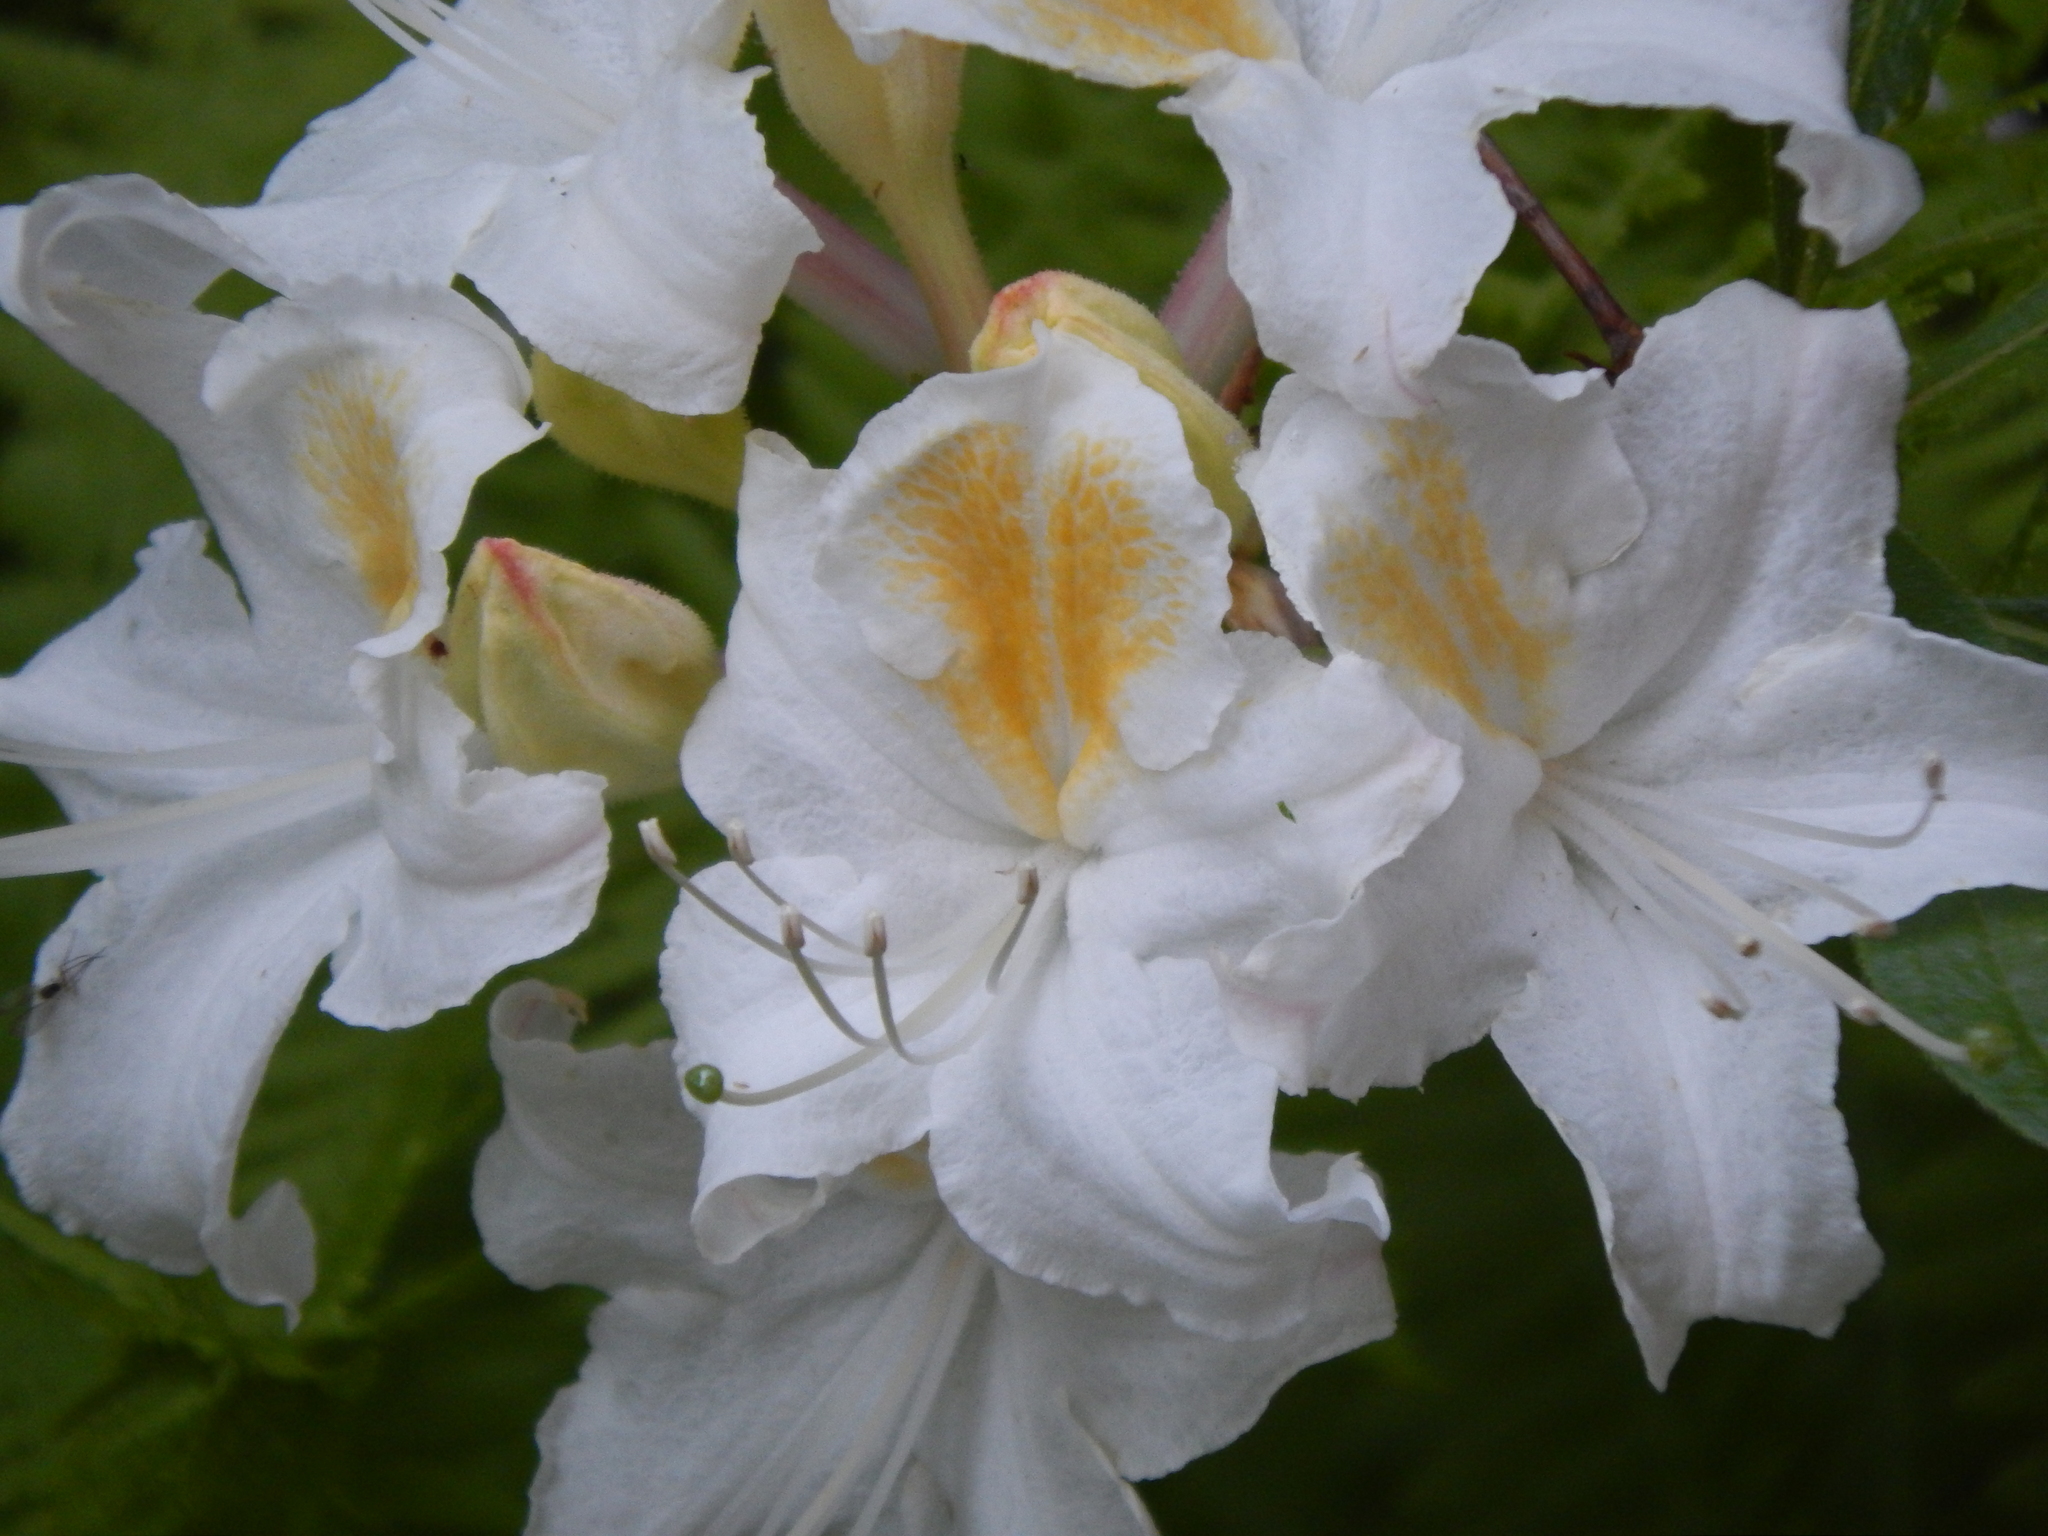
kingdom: Plantae
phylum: Tracheophyta
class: Magnoliopsida
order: Ericales
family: Ericaceae
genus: Rhododendron
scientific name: Rhododendron occidentale
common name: Western azalea
